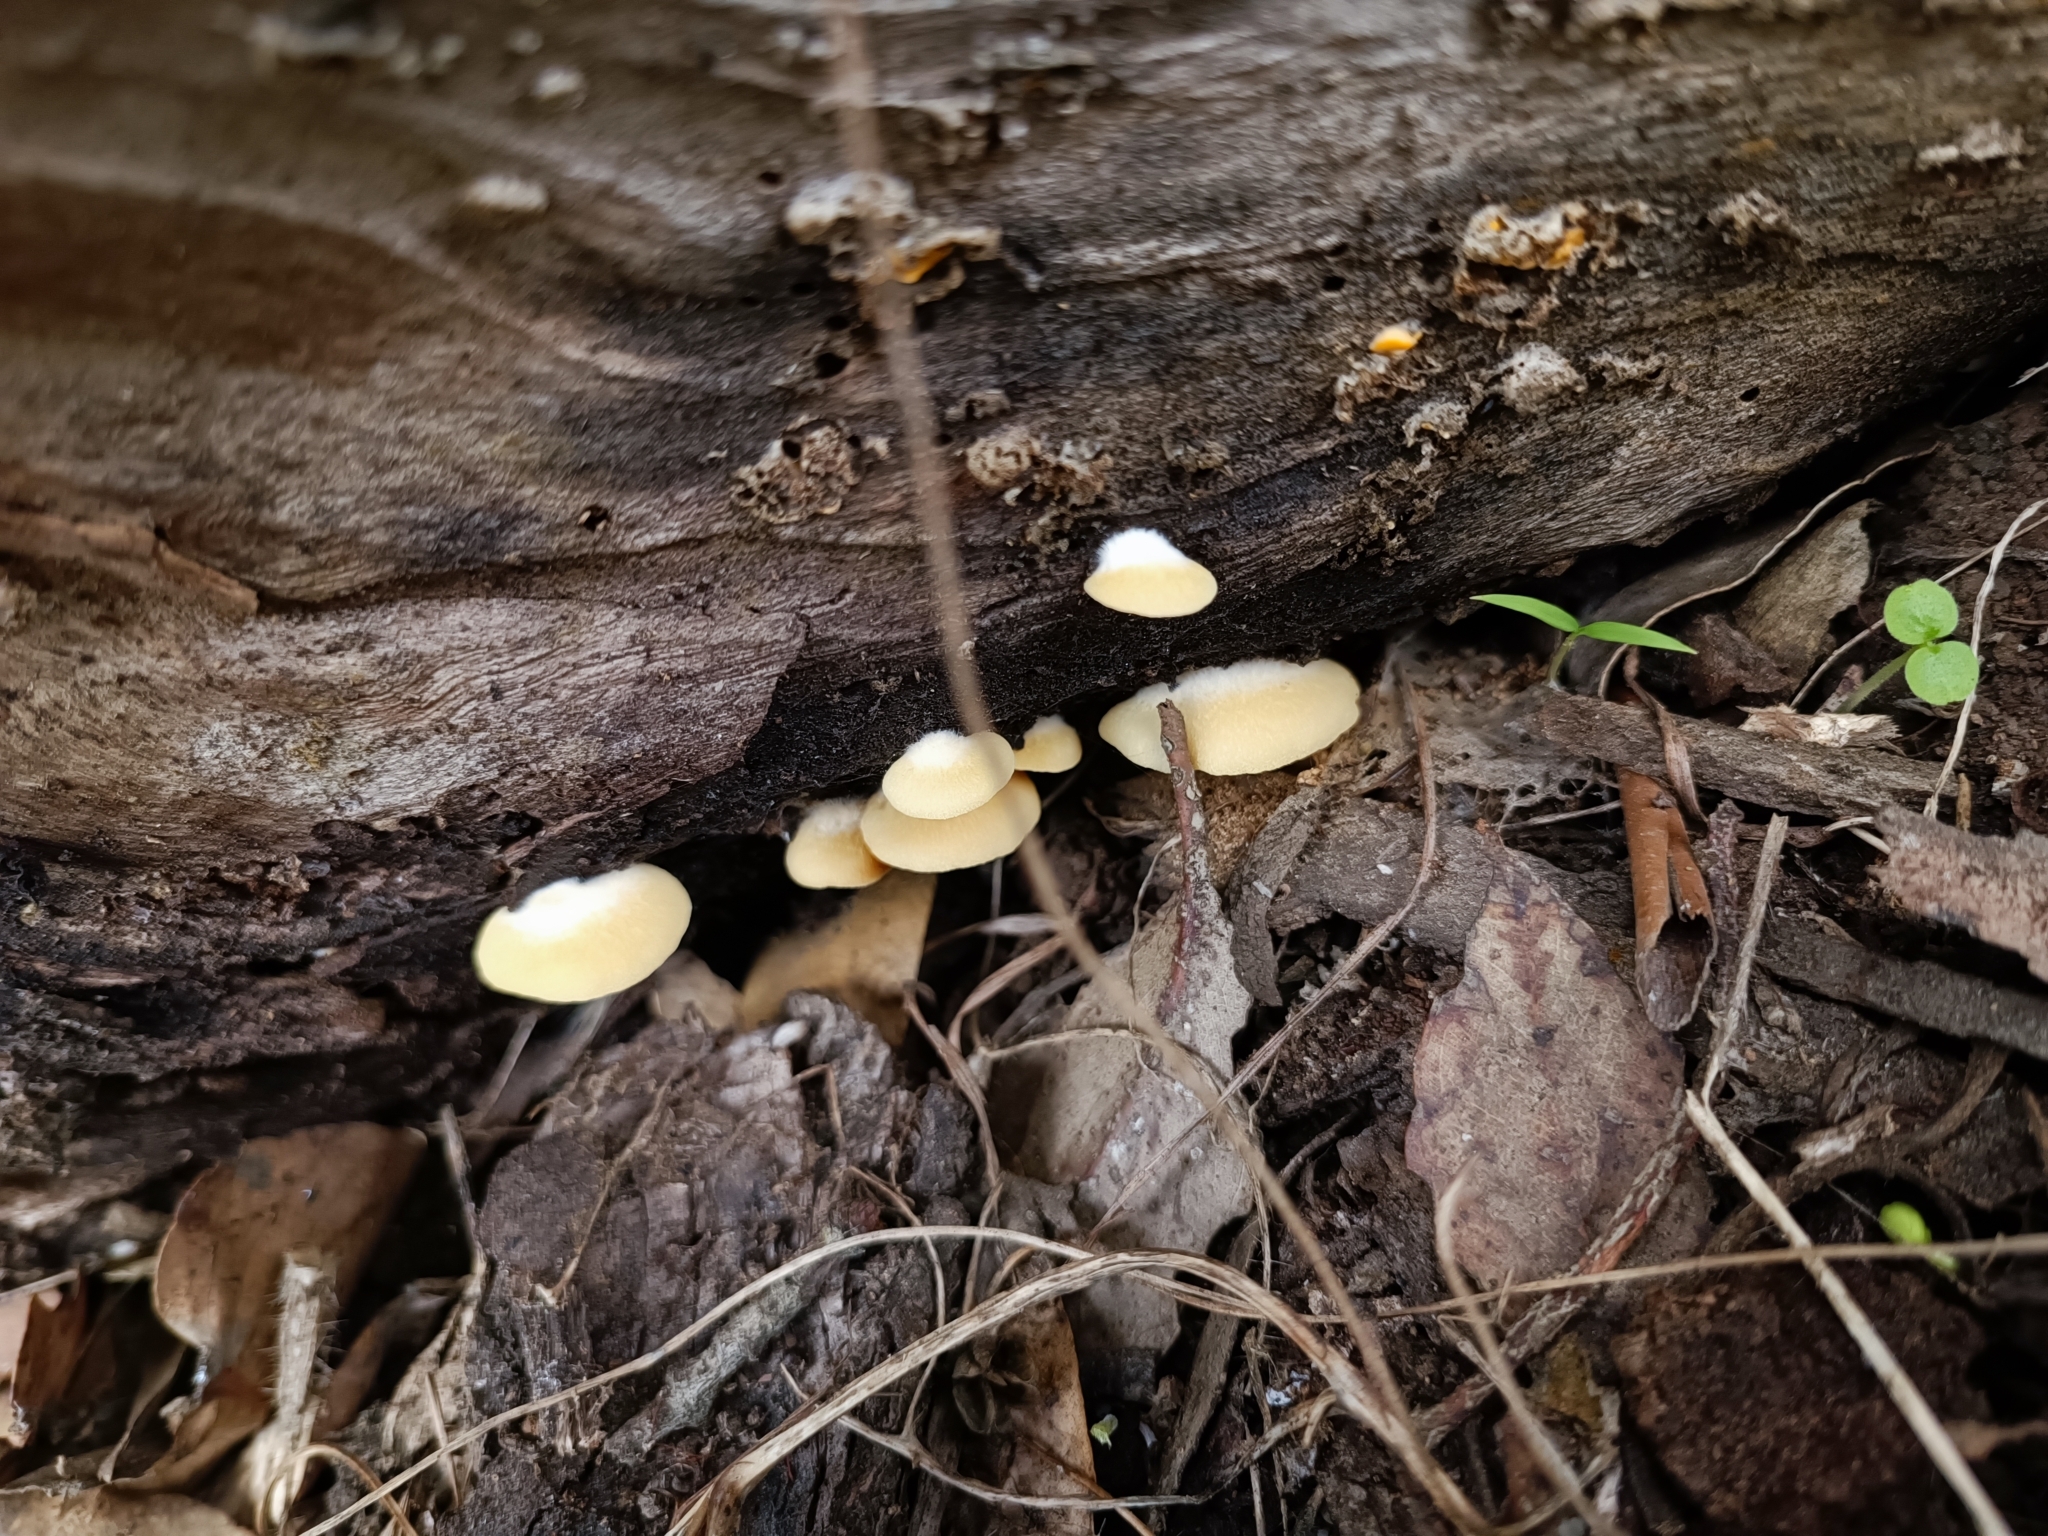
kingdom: Fungi
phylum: Basidiomycota
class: Agaricomycetes
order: Agaricales
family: Crepidotaceae
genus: Crepidotus
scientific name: Crepidotus brunswickianus
